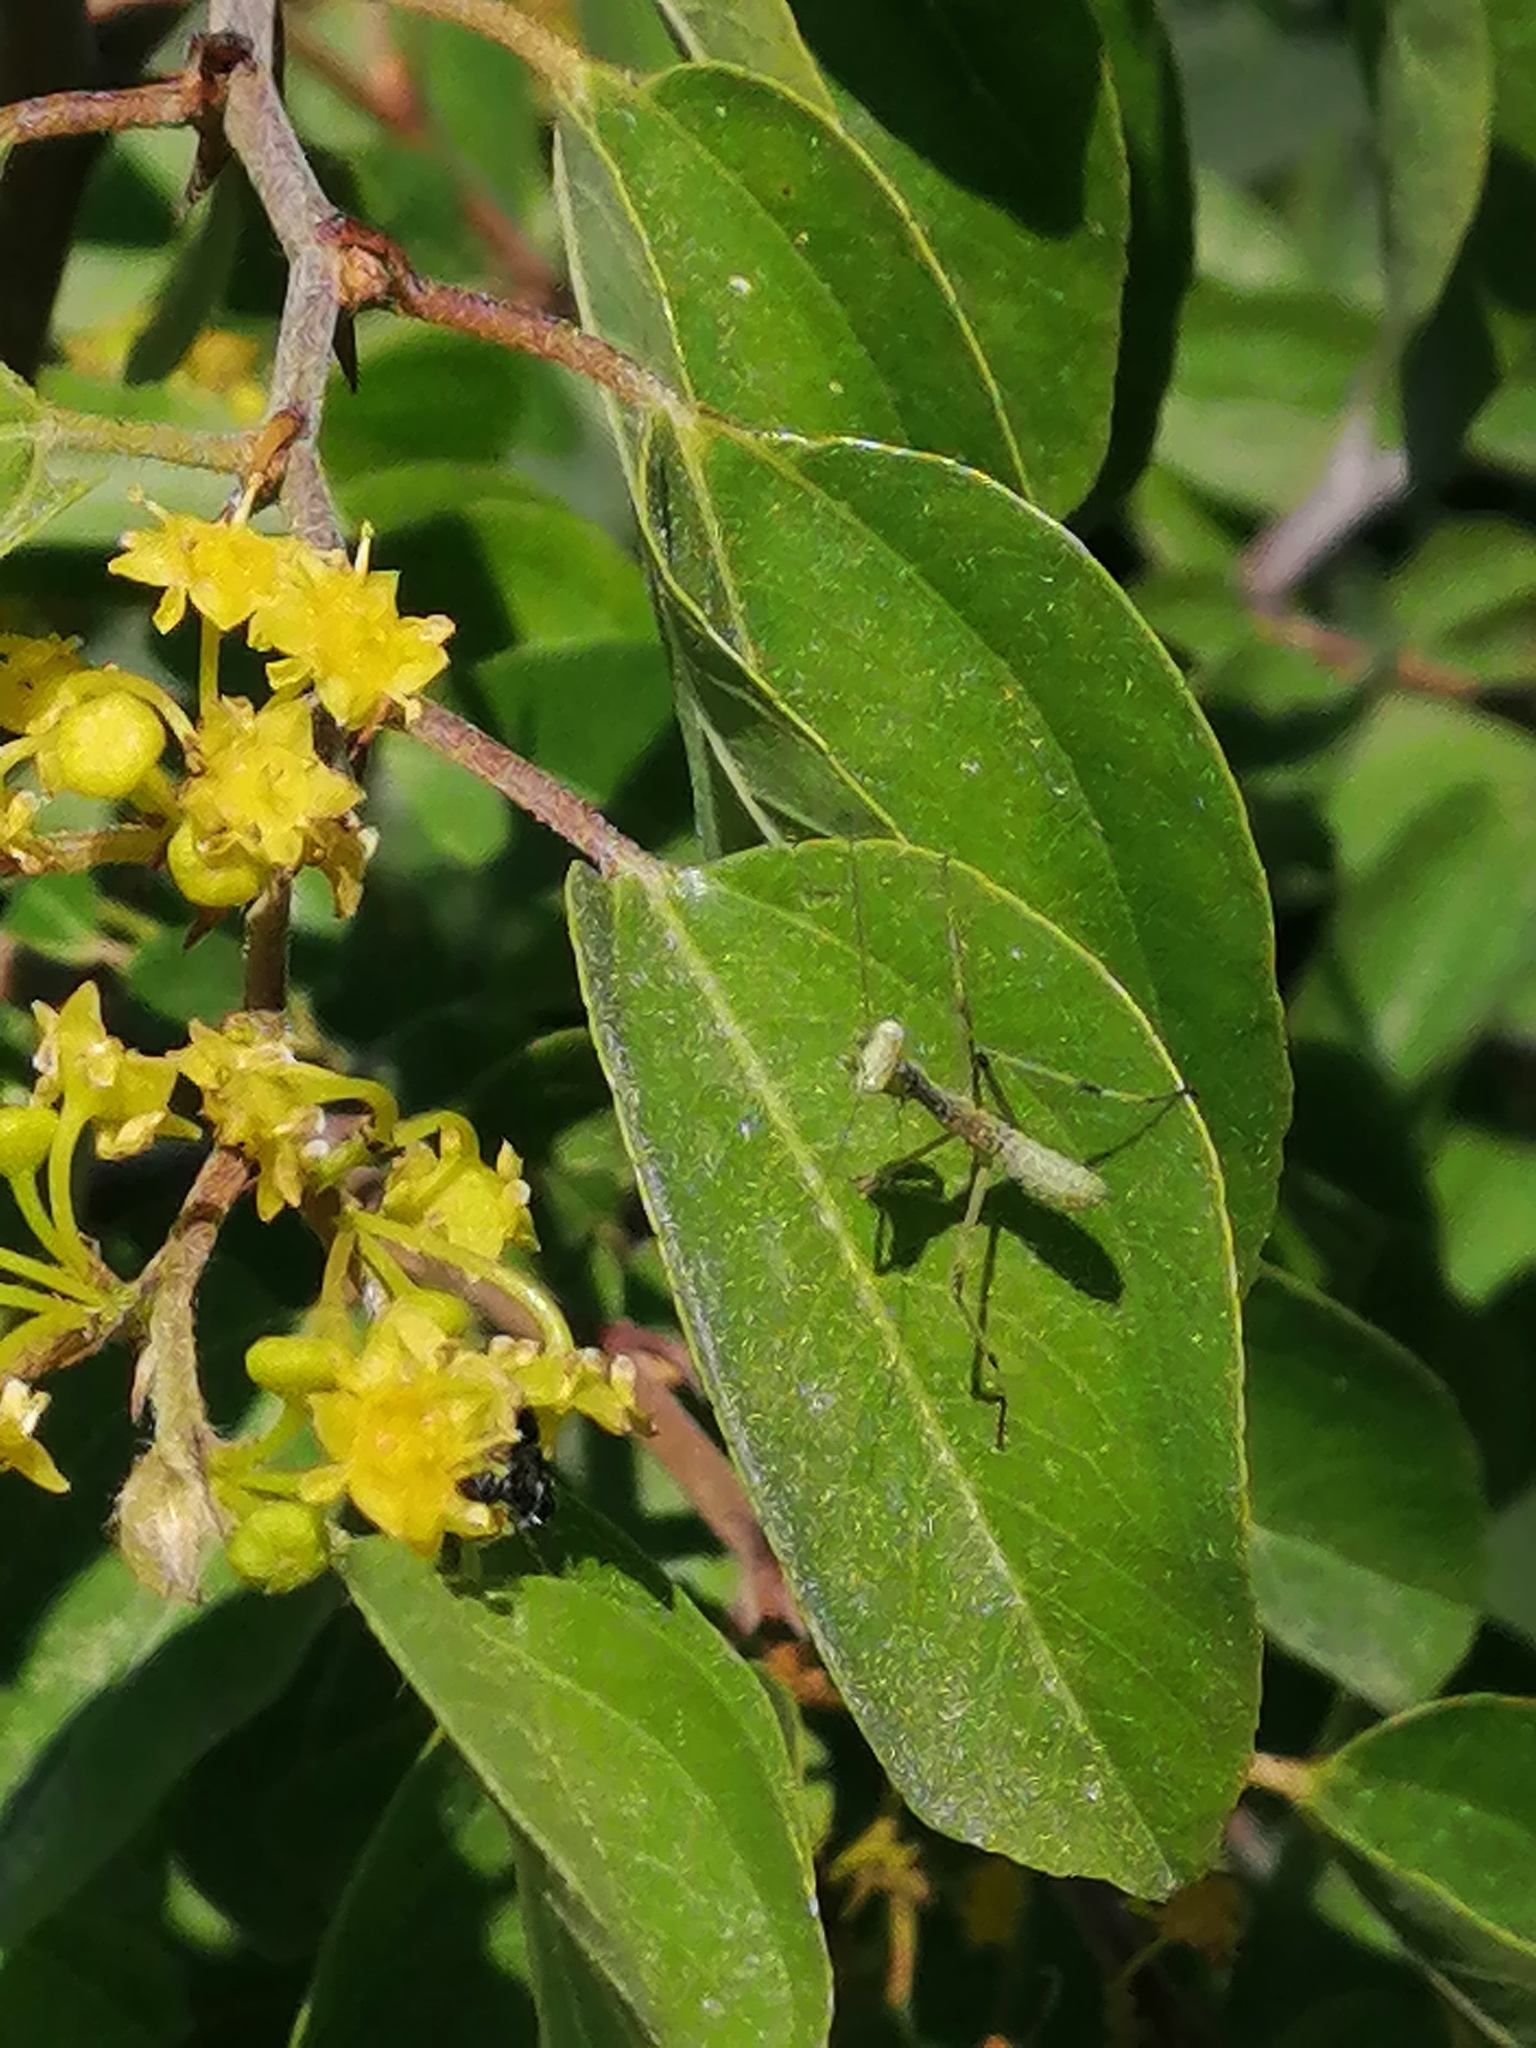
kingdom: Animalia
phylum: Arthropoda
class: Insecta
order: Mantodea
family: Mantidae
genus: Hierodula
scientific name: Hierodula transcaucasica
